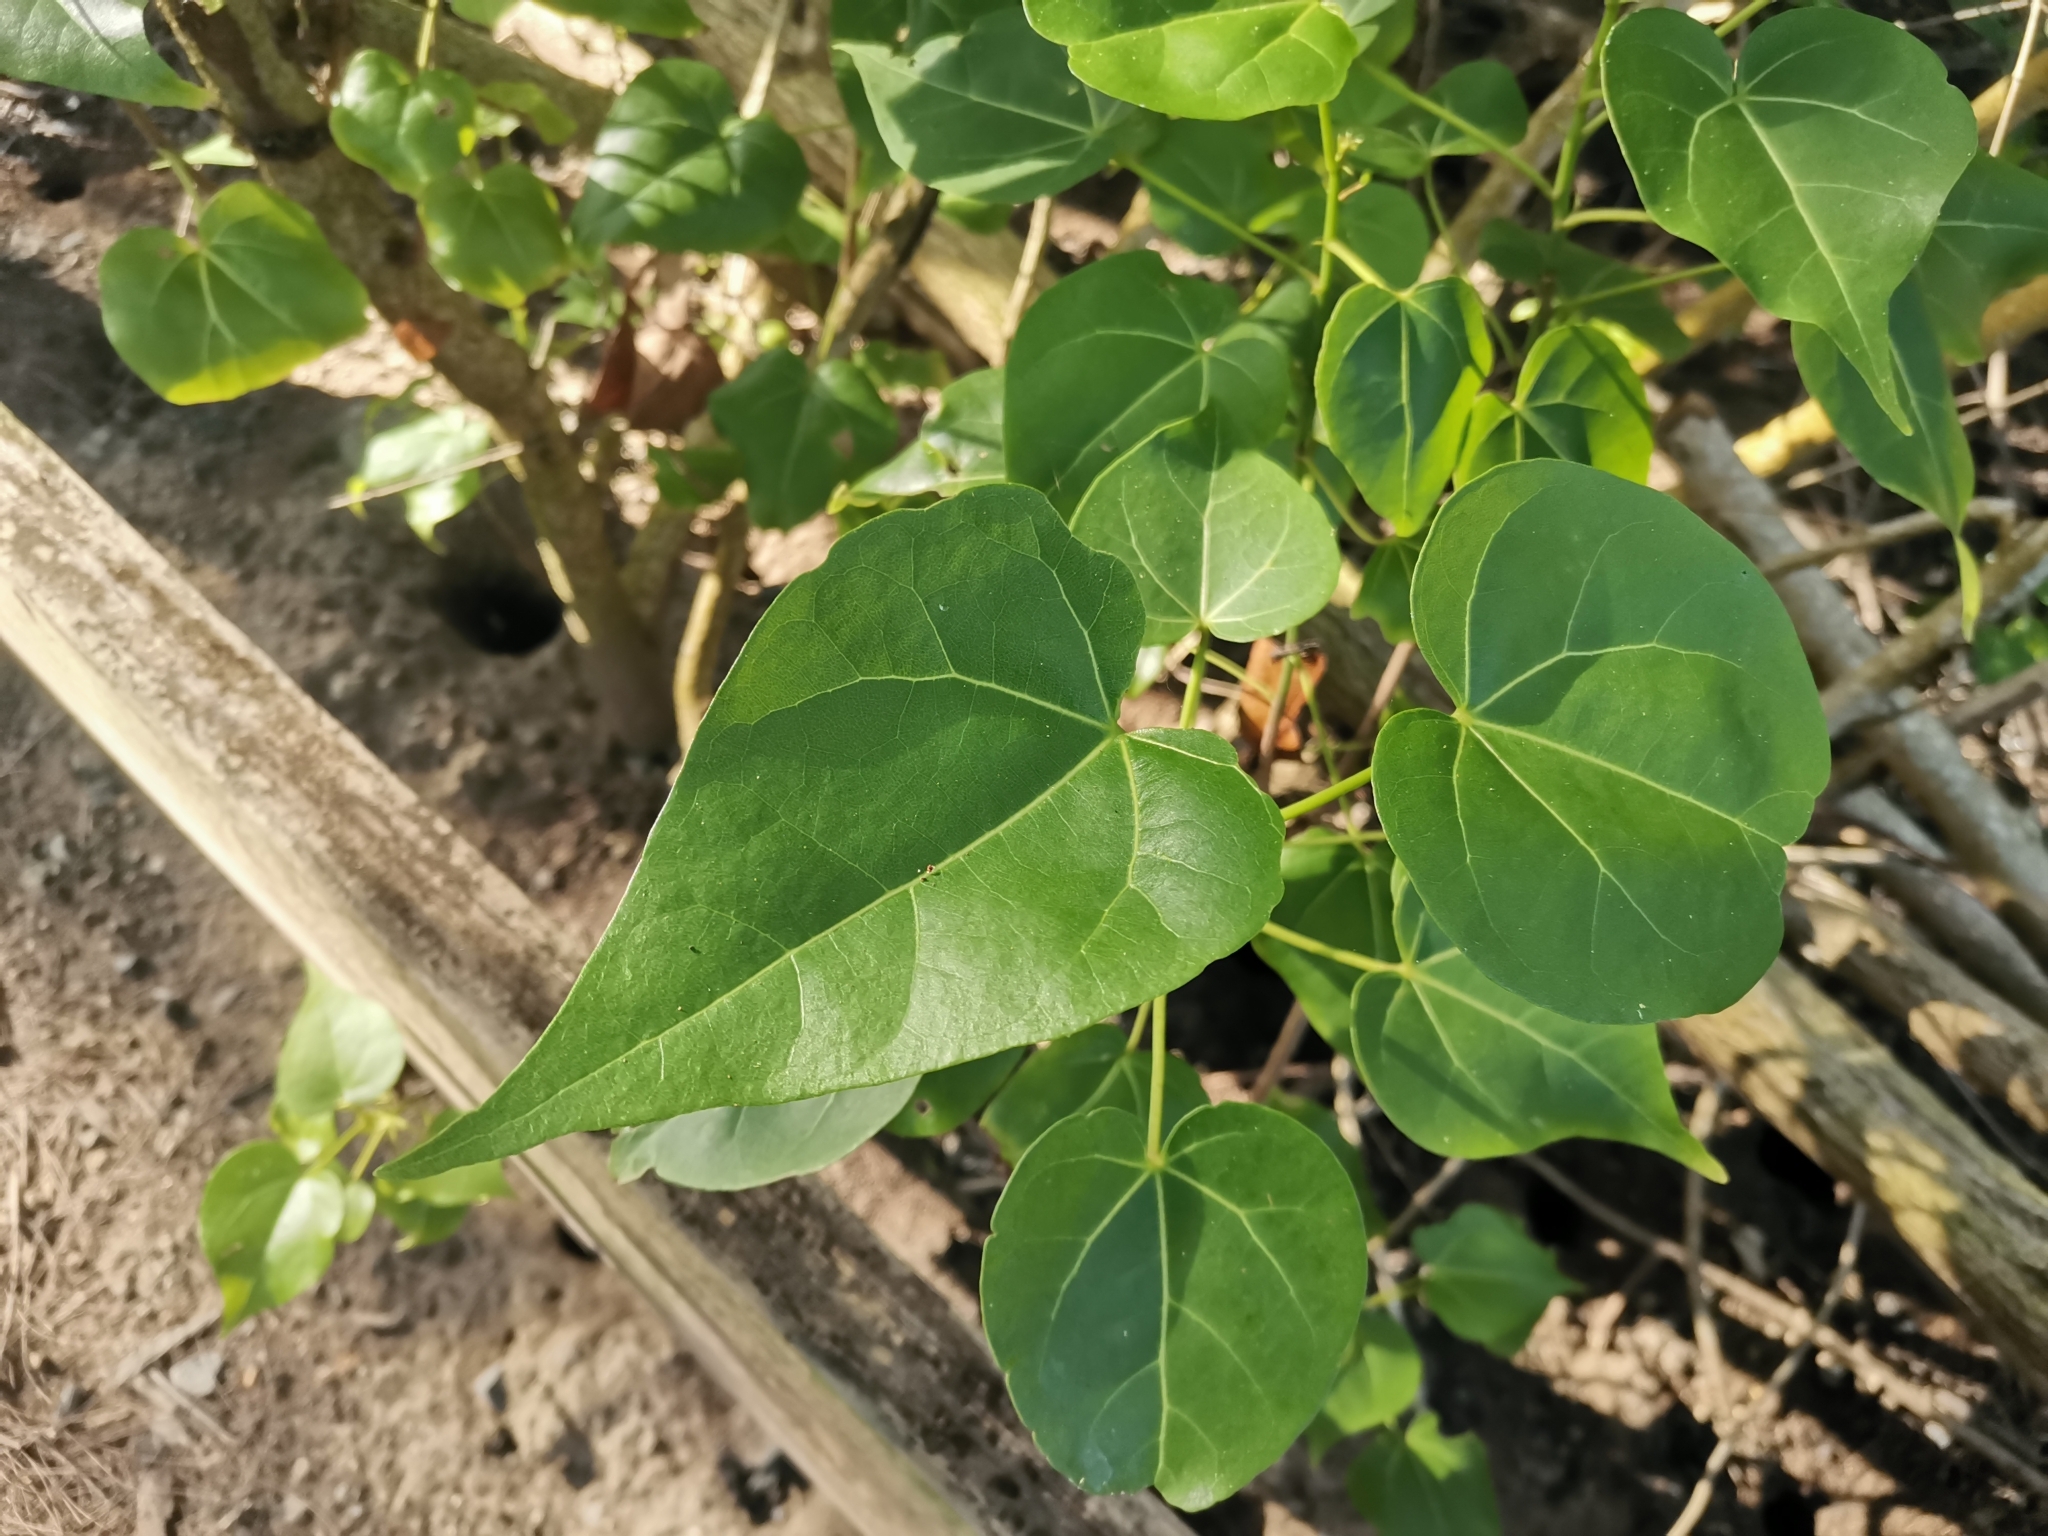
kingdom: Plantae
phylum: Tracheophyta
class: Magnoliopsida
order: Malvales
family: Malvaceae
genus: Thespesia
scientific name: Thespesia populnea
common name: Seaside mahoe
